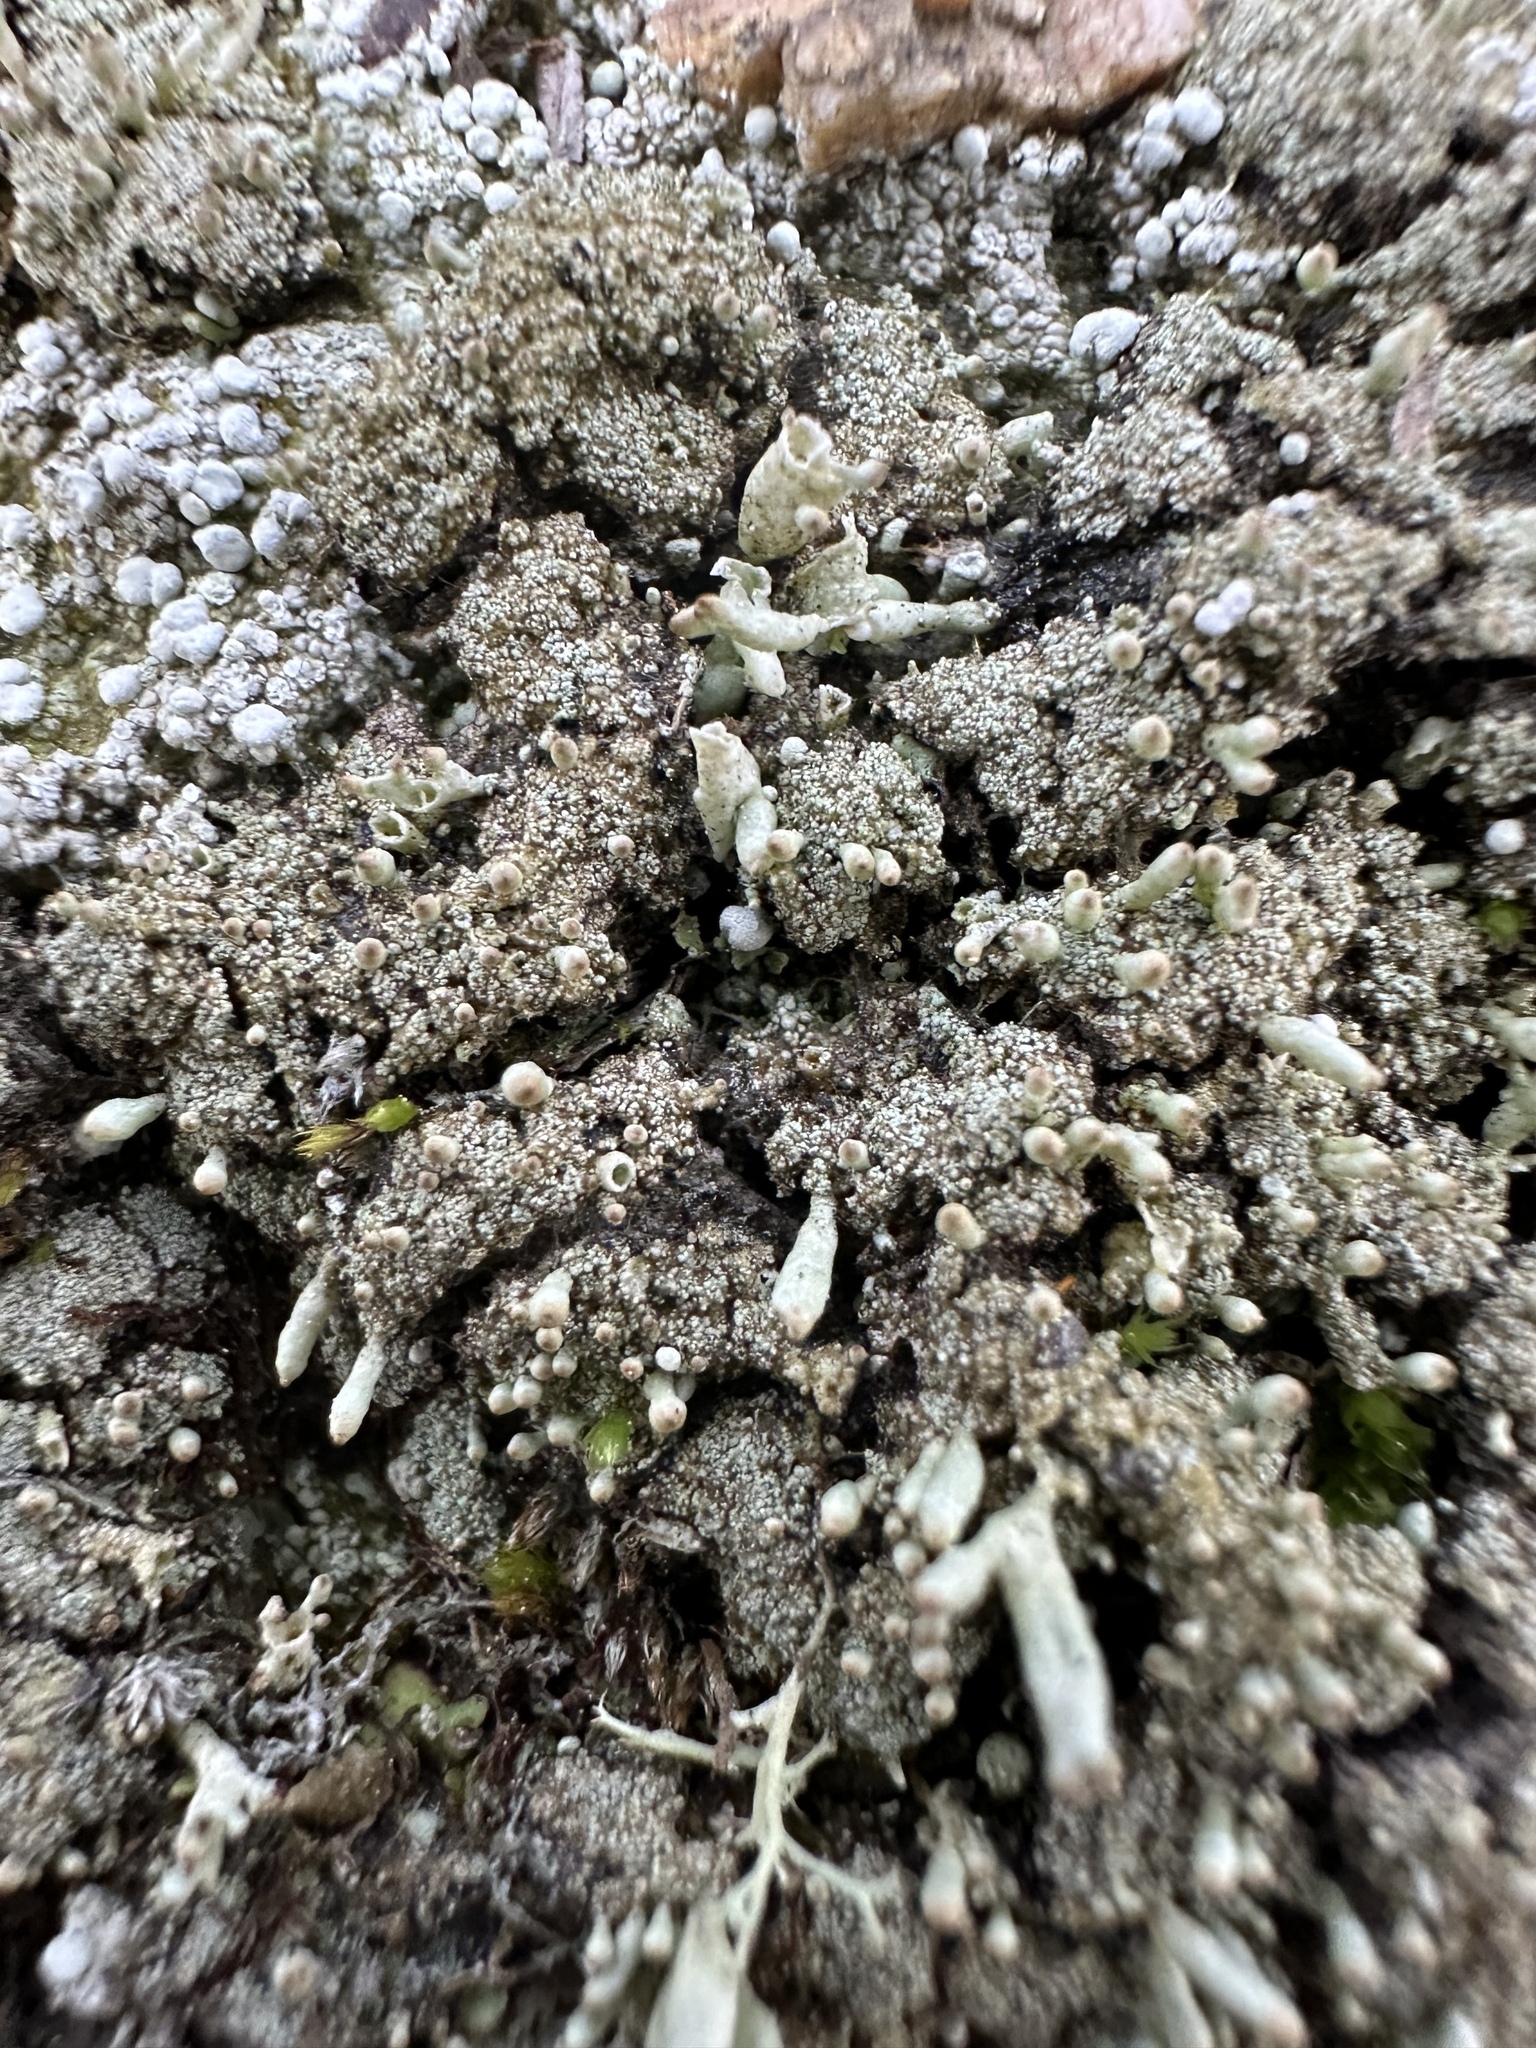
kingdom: Fungi
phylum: Ascomycota
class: Lecanoromycetes
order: Lecanorales
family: Cladoniaceae
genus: Pycnothelia
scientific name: Pycnothelia papillaria
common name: Nipple lichen
